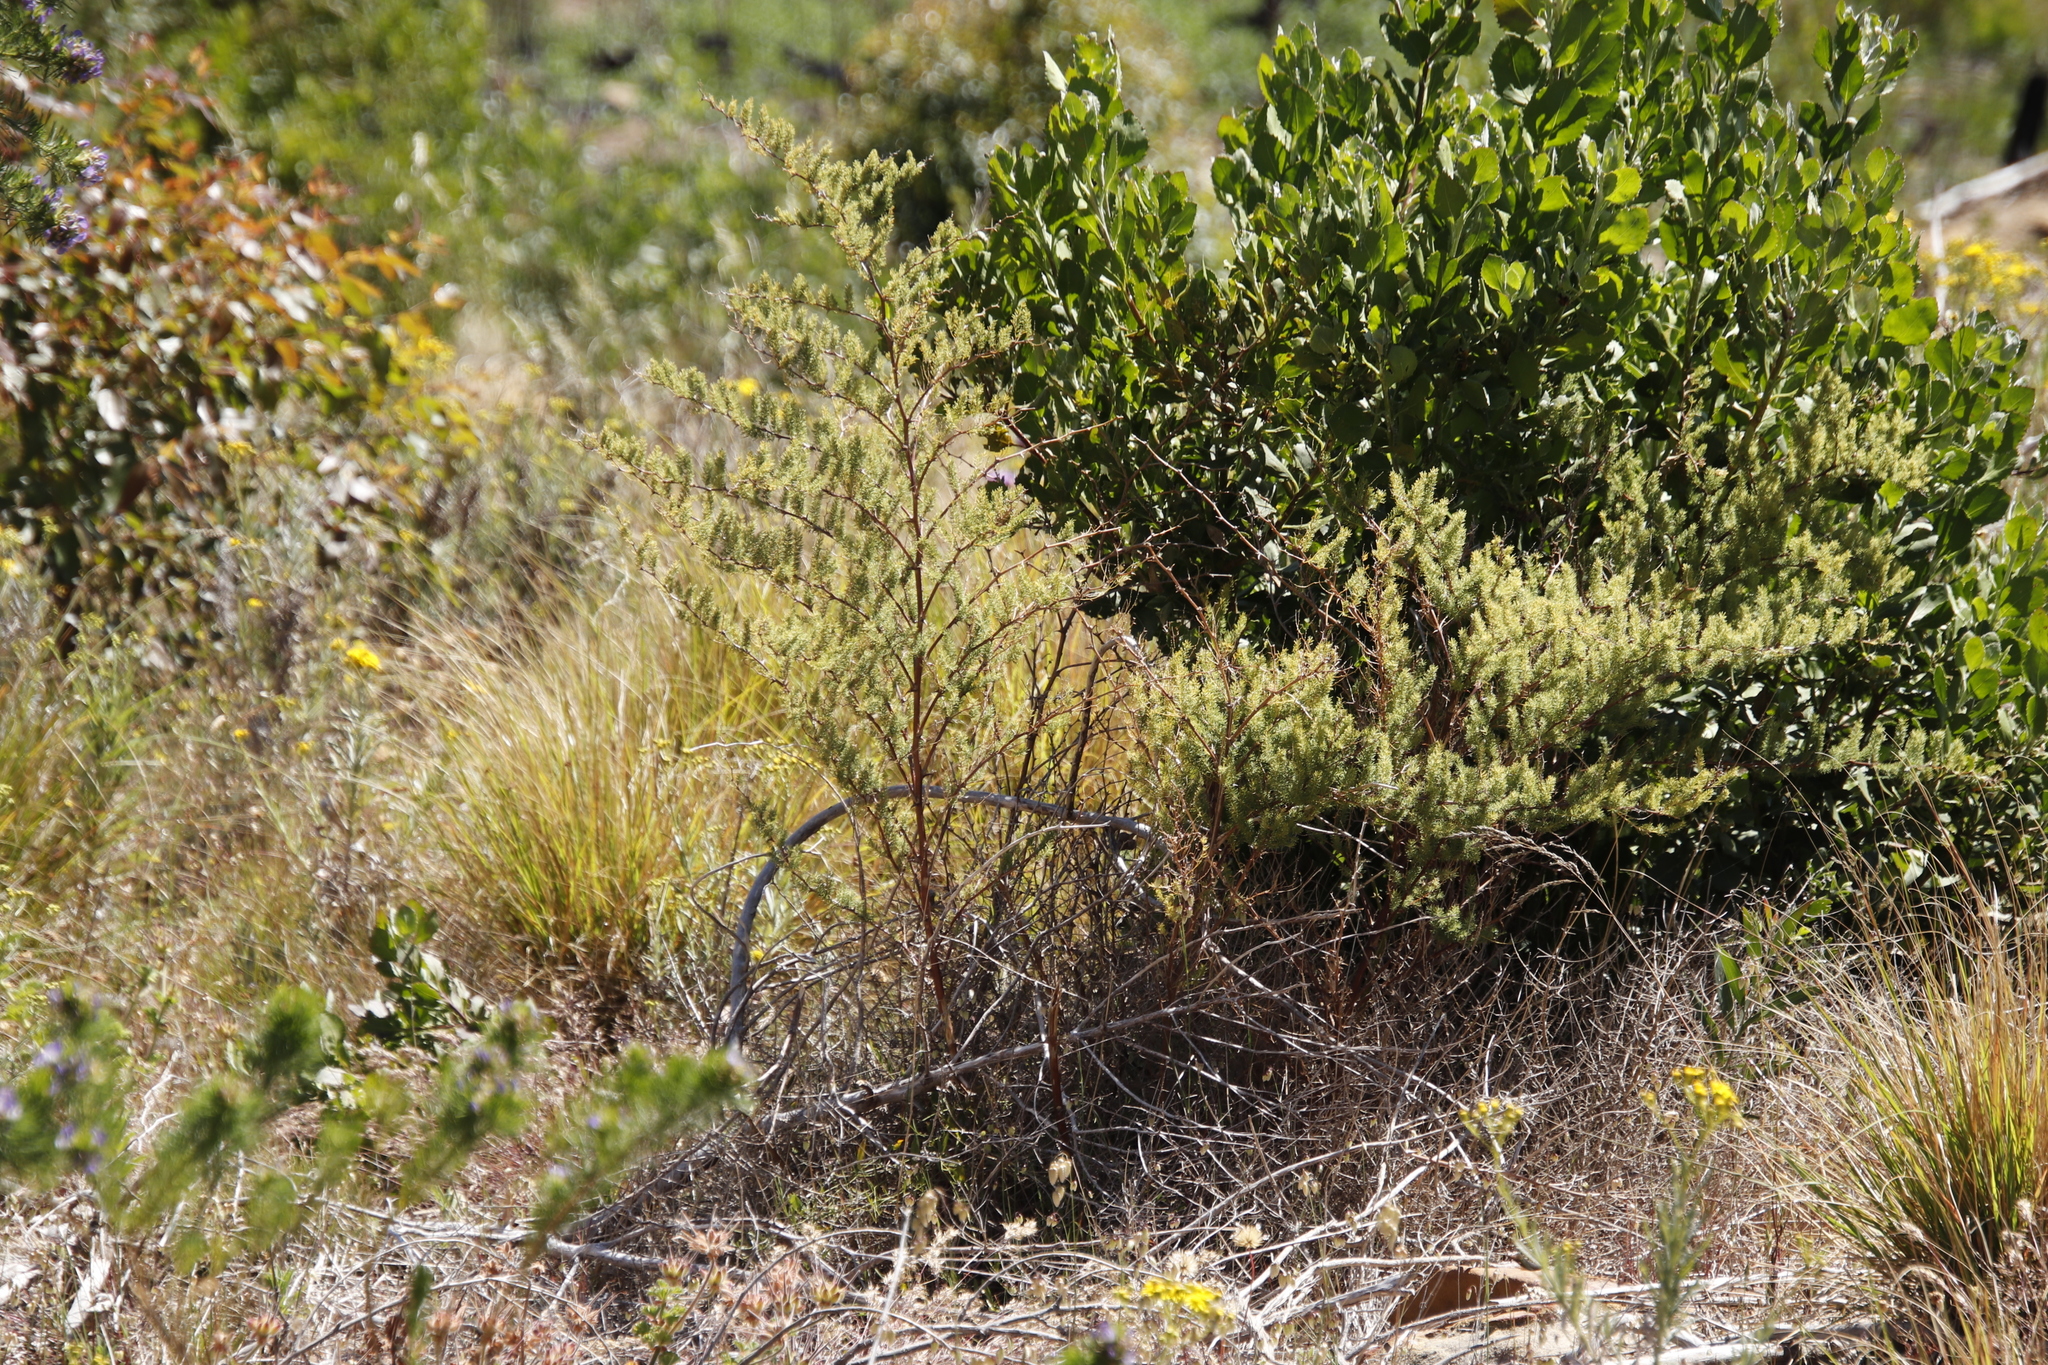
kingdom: Plantae
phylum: Tracheophyta
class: Liliopsida
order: Asparagales
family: Asparagaceae
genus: Asparagus
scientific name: Asparagus rubicundus
